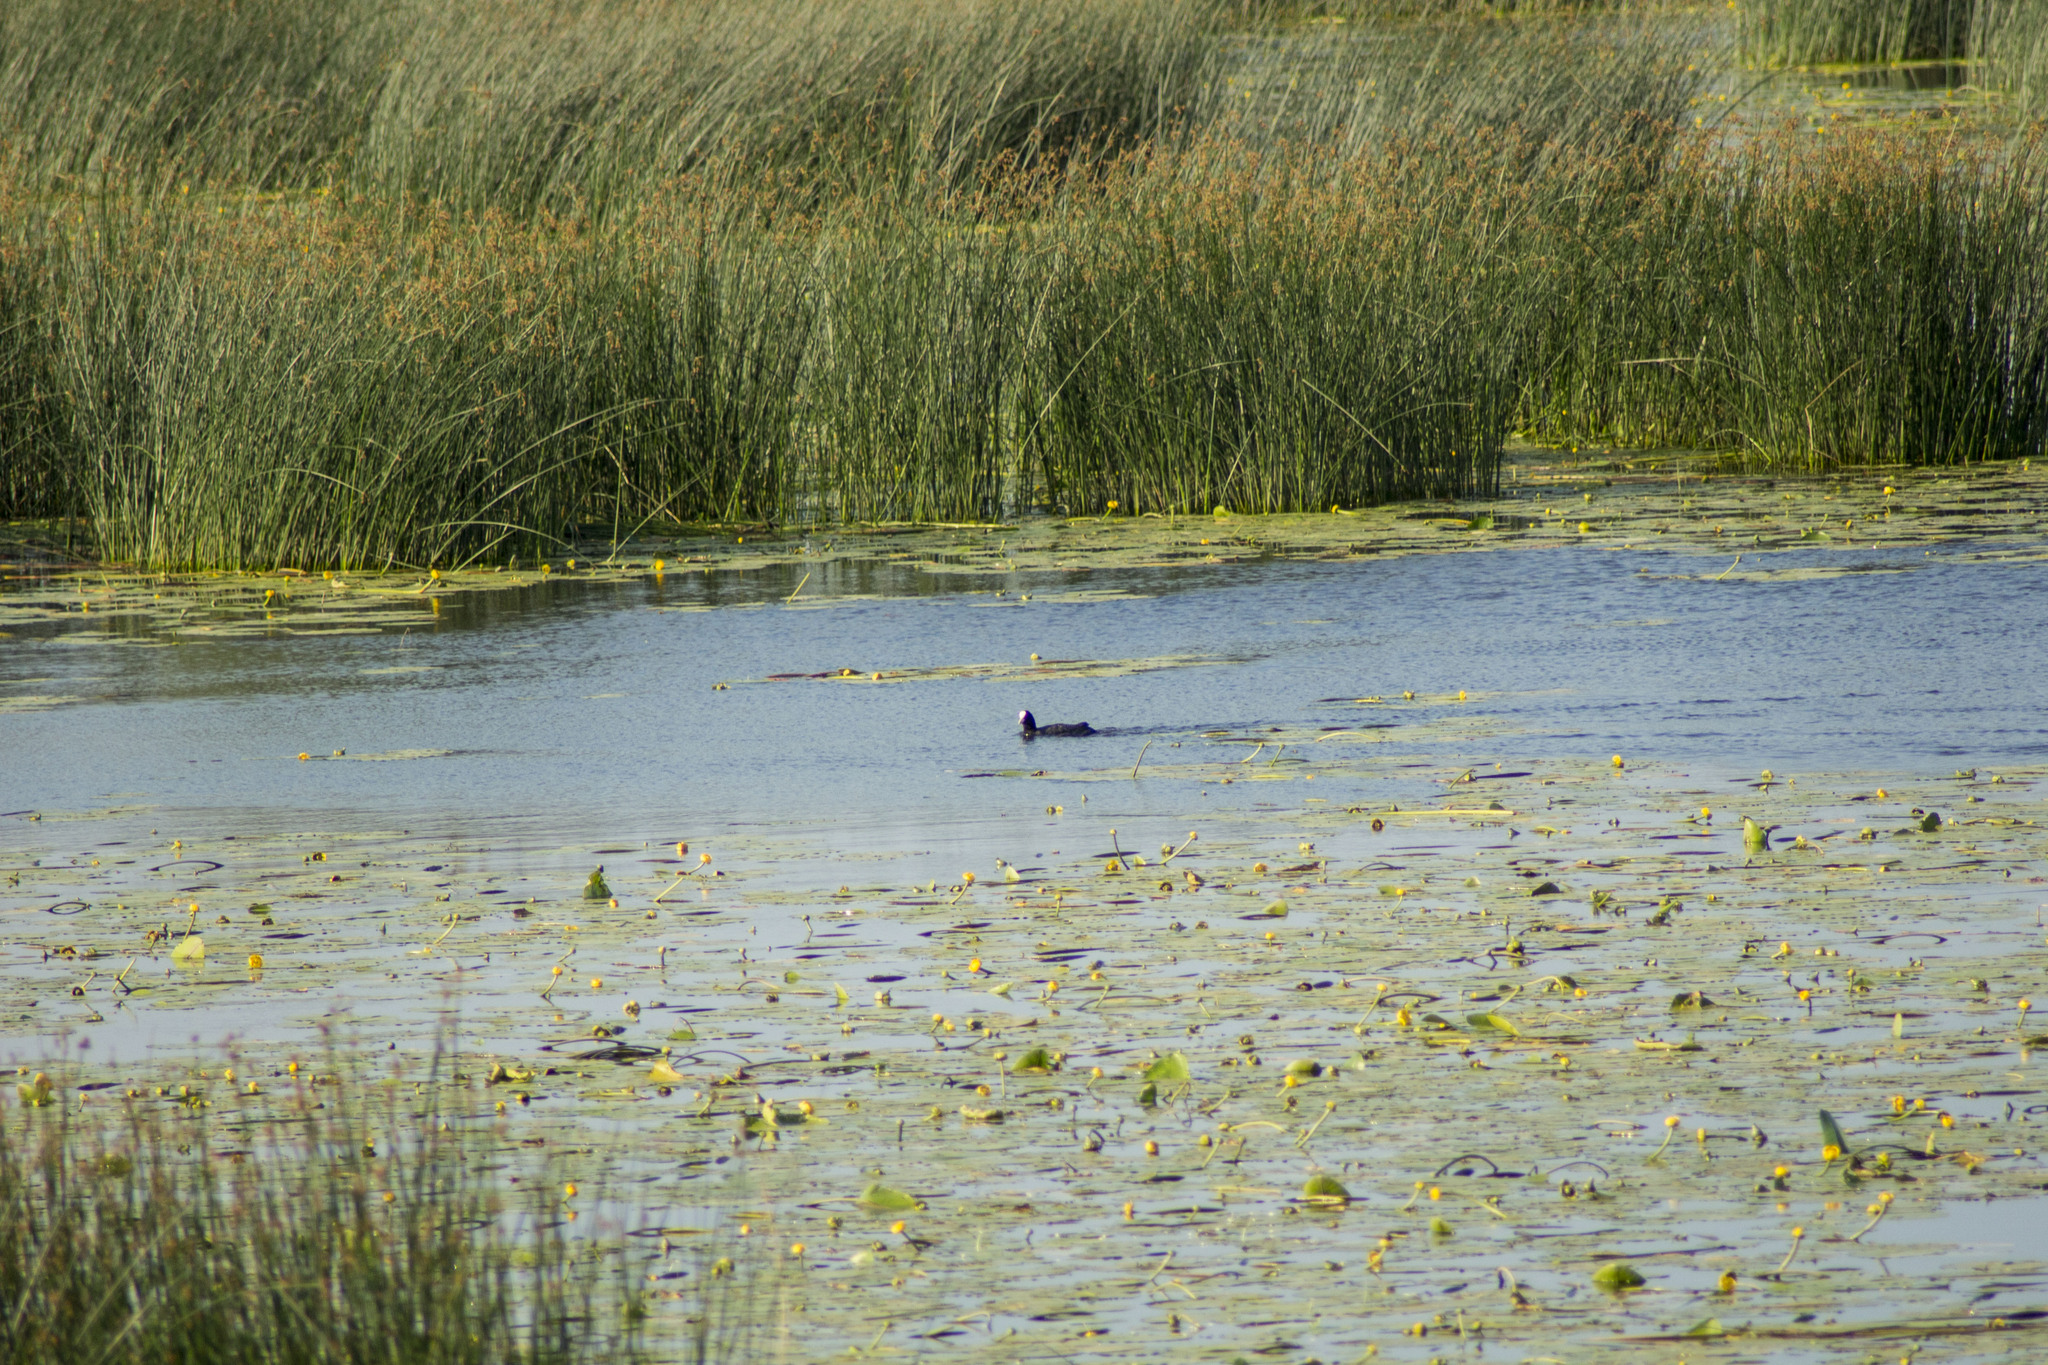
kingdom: Animalia
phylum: Chordata
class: Aves
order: Gruiformes
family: Rallidae
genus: Fulica
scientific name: Fulica atra
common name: Eurasian coot
